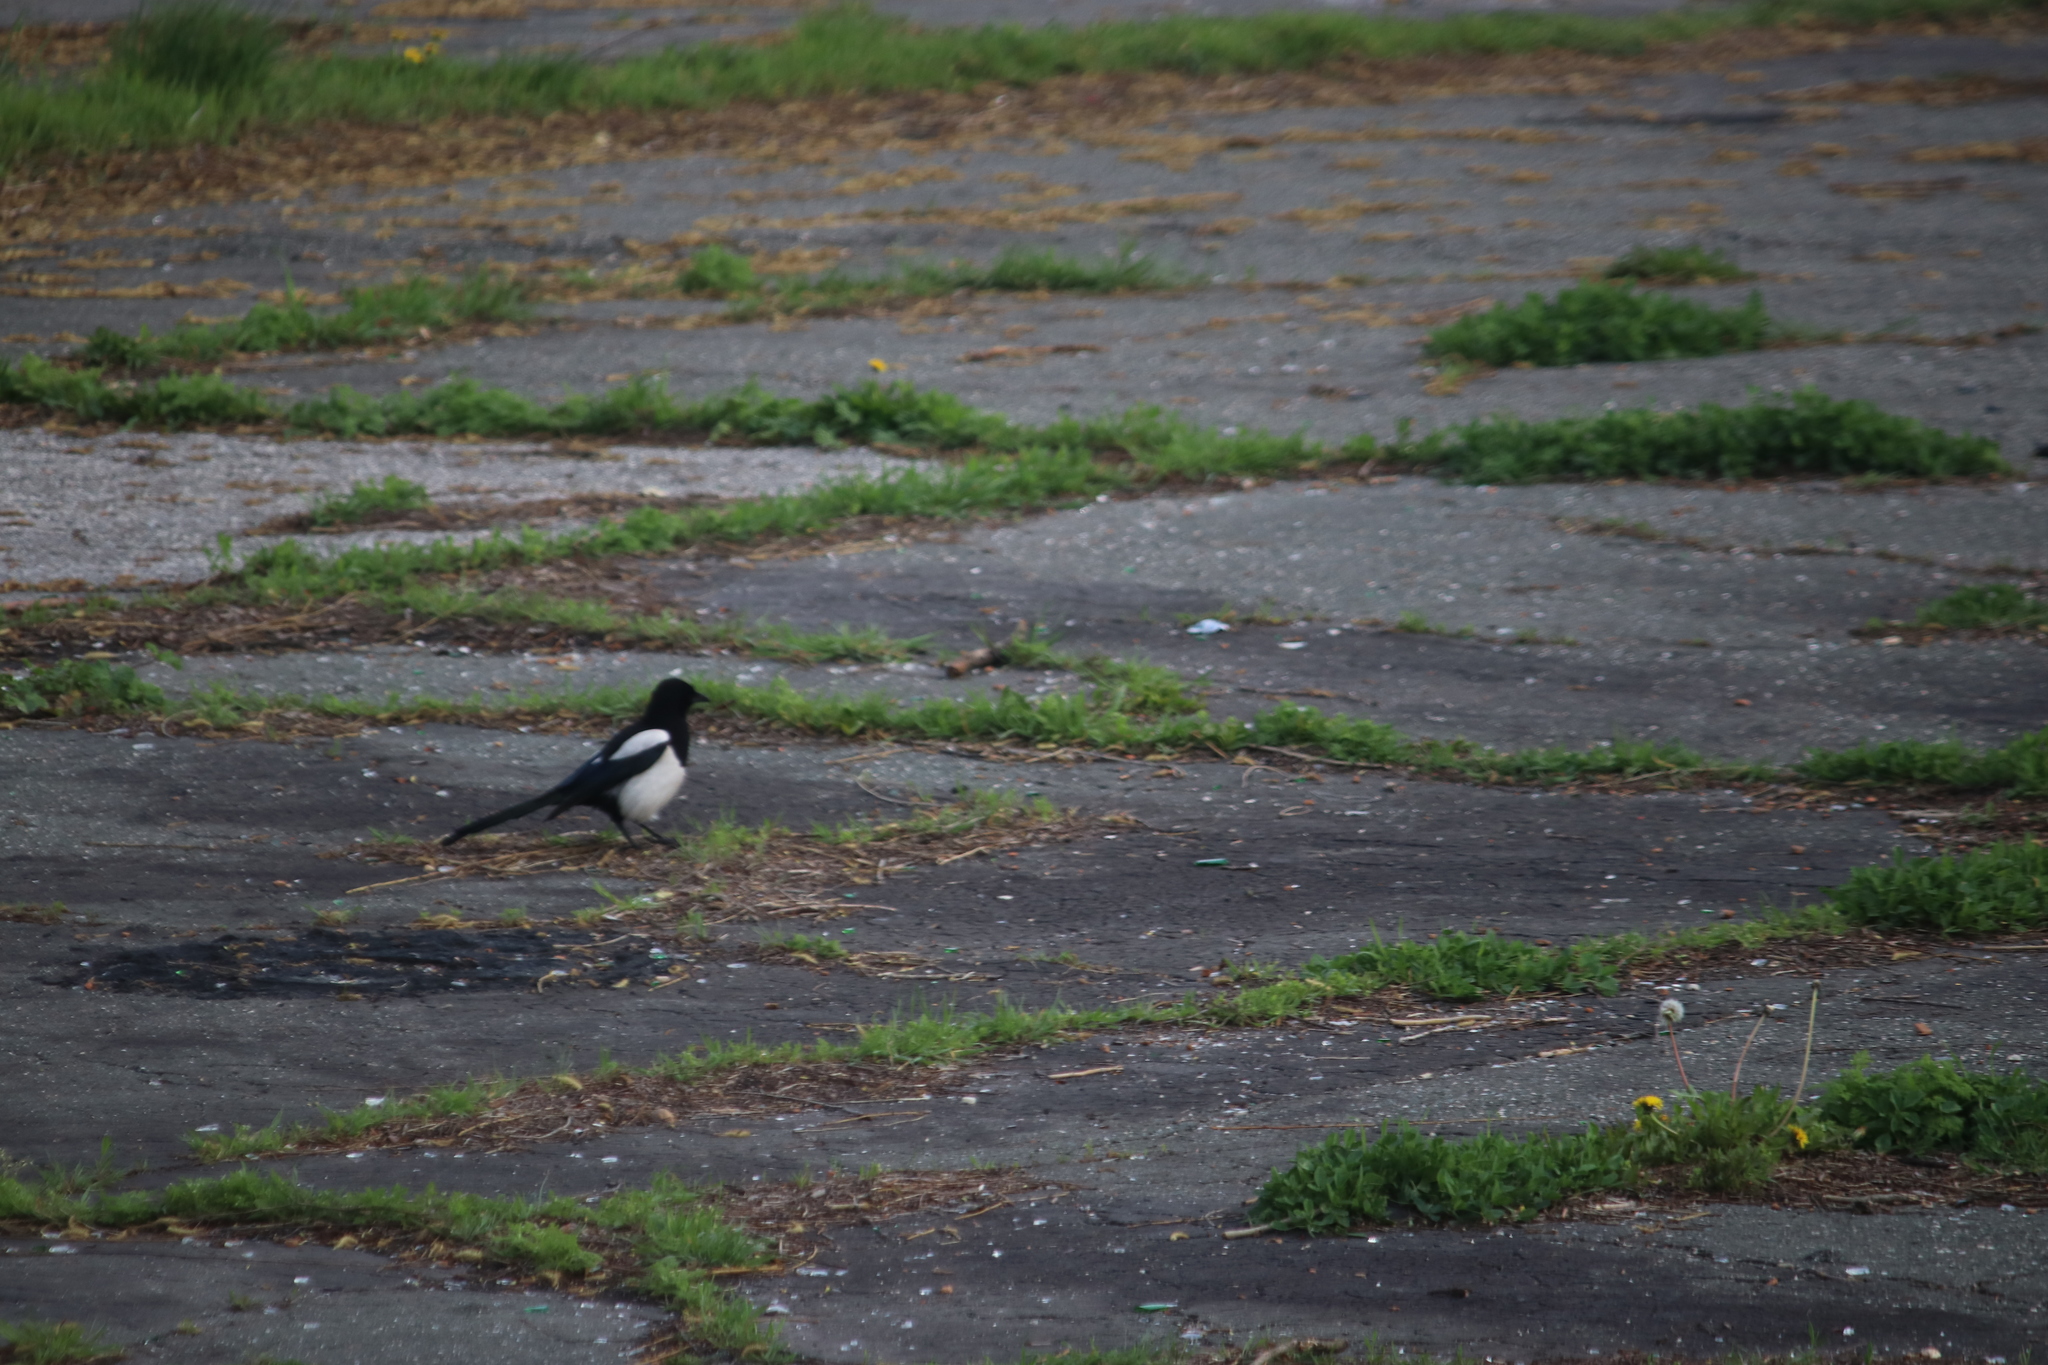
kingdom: Animalia
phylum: Chordata
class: Aves
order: Passeriformes
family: Corvidae
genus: Pica
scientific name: Pica pica
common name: Eurasian magpie
